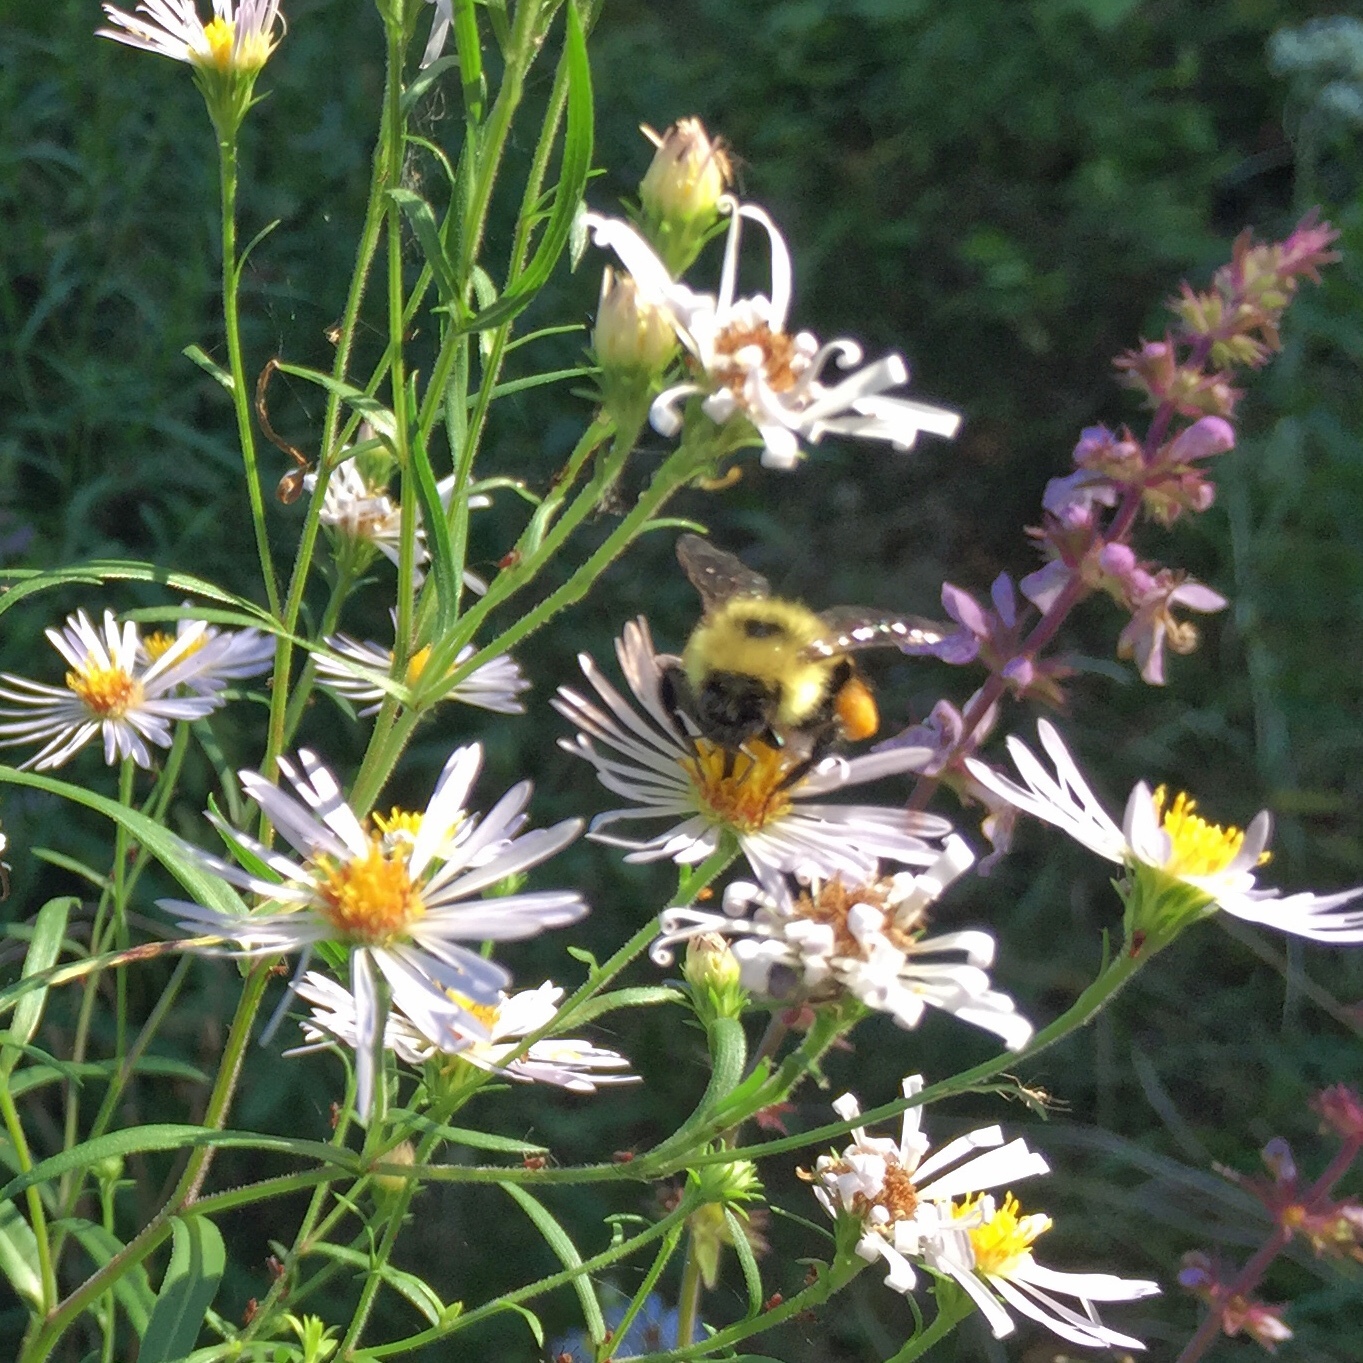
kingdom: Animalia
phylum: Arthropoda
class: Insecta
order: Hymenoptera
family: Apidae
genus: Pyrobombus
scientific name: Pyrobombus
